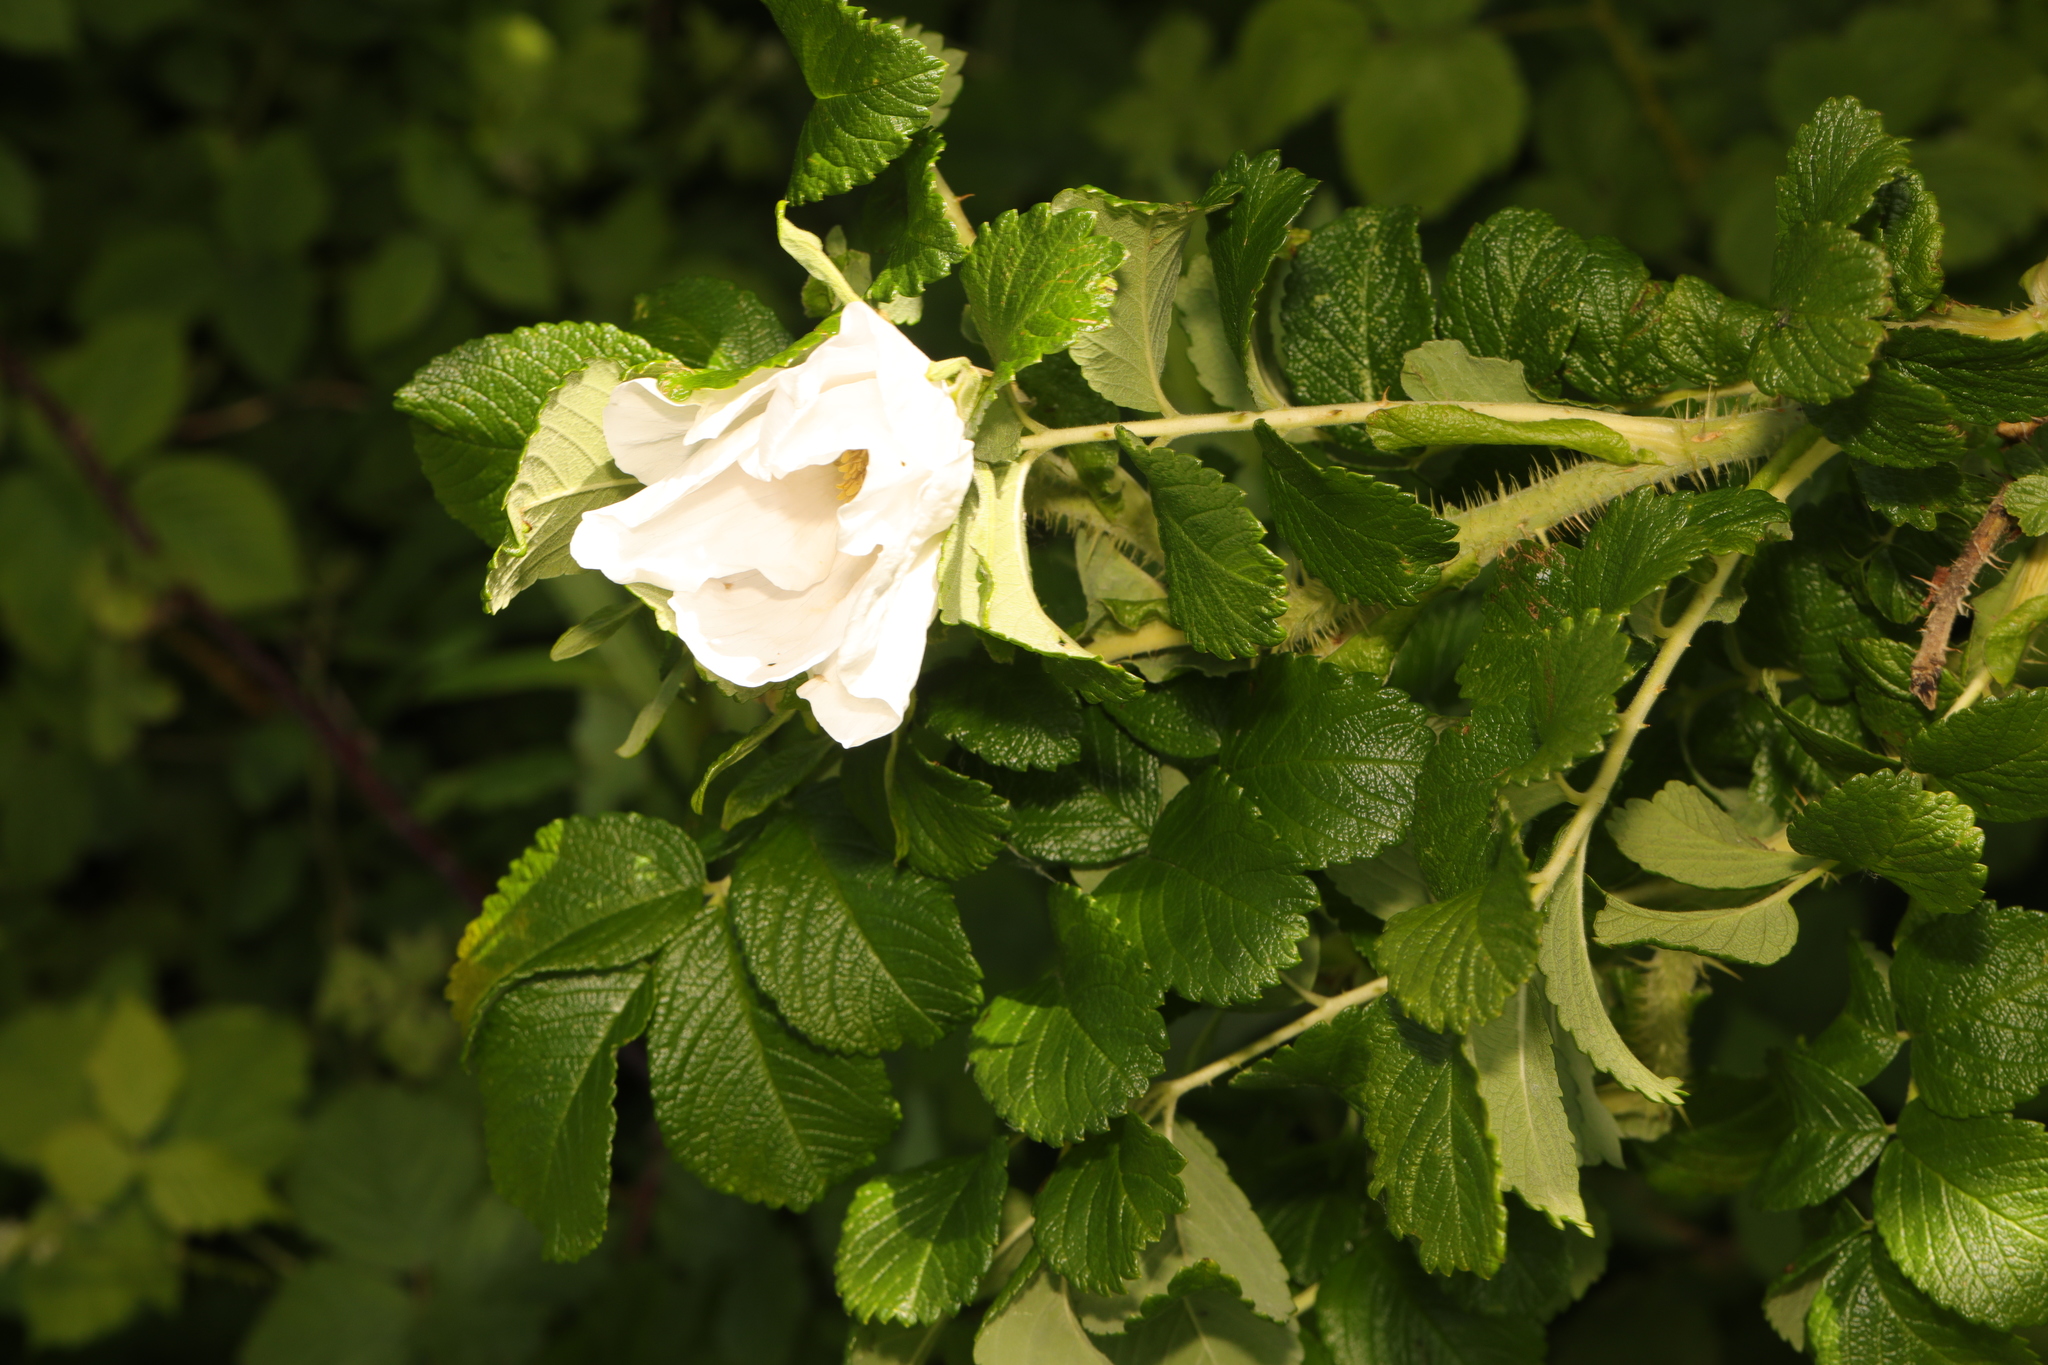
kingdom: Plantae
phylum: Tracheophyta
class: Magnoliopsida
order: Rosales
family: Rosaceae
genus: Rosa
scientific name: Rosa rugosa
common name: Japanese rose
